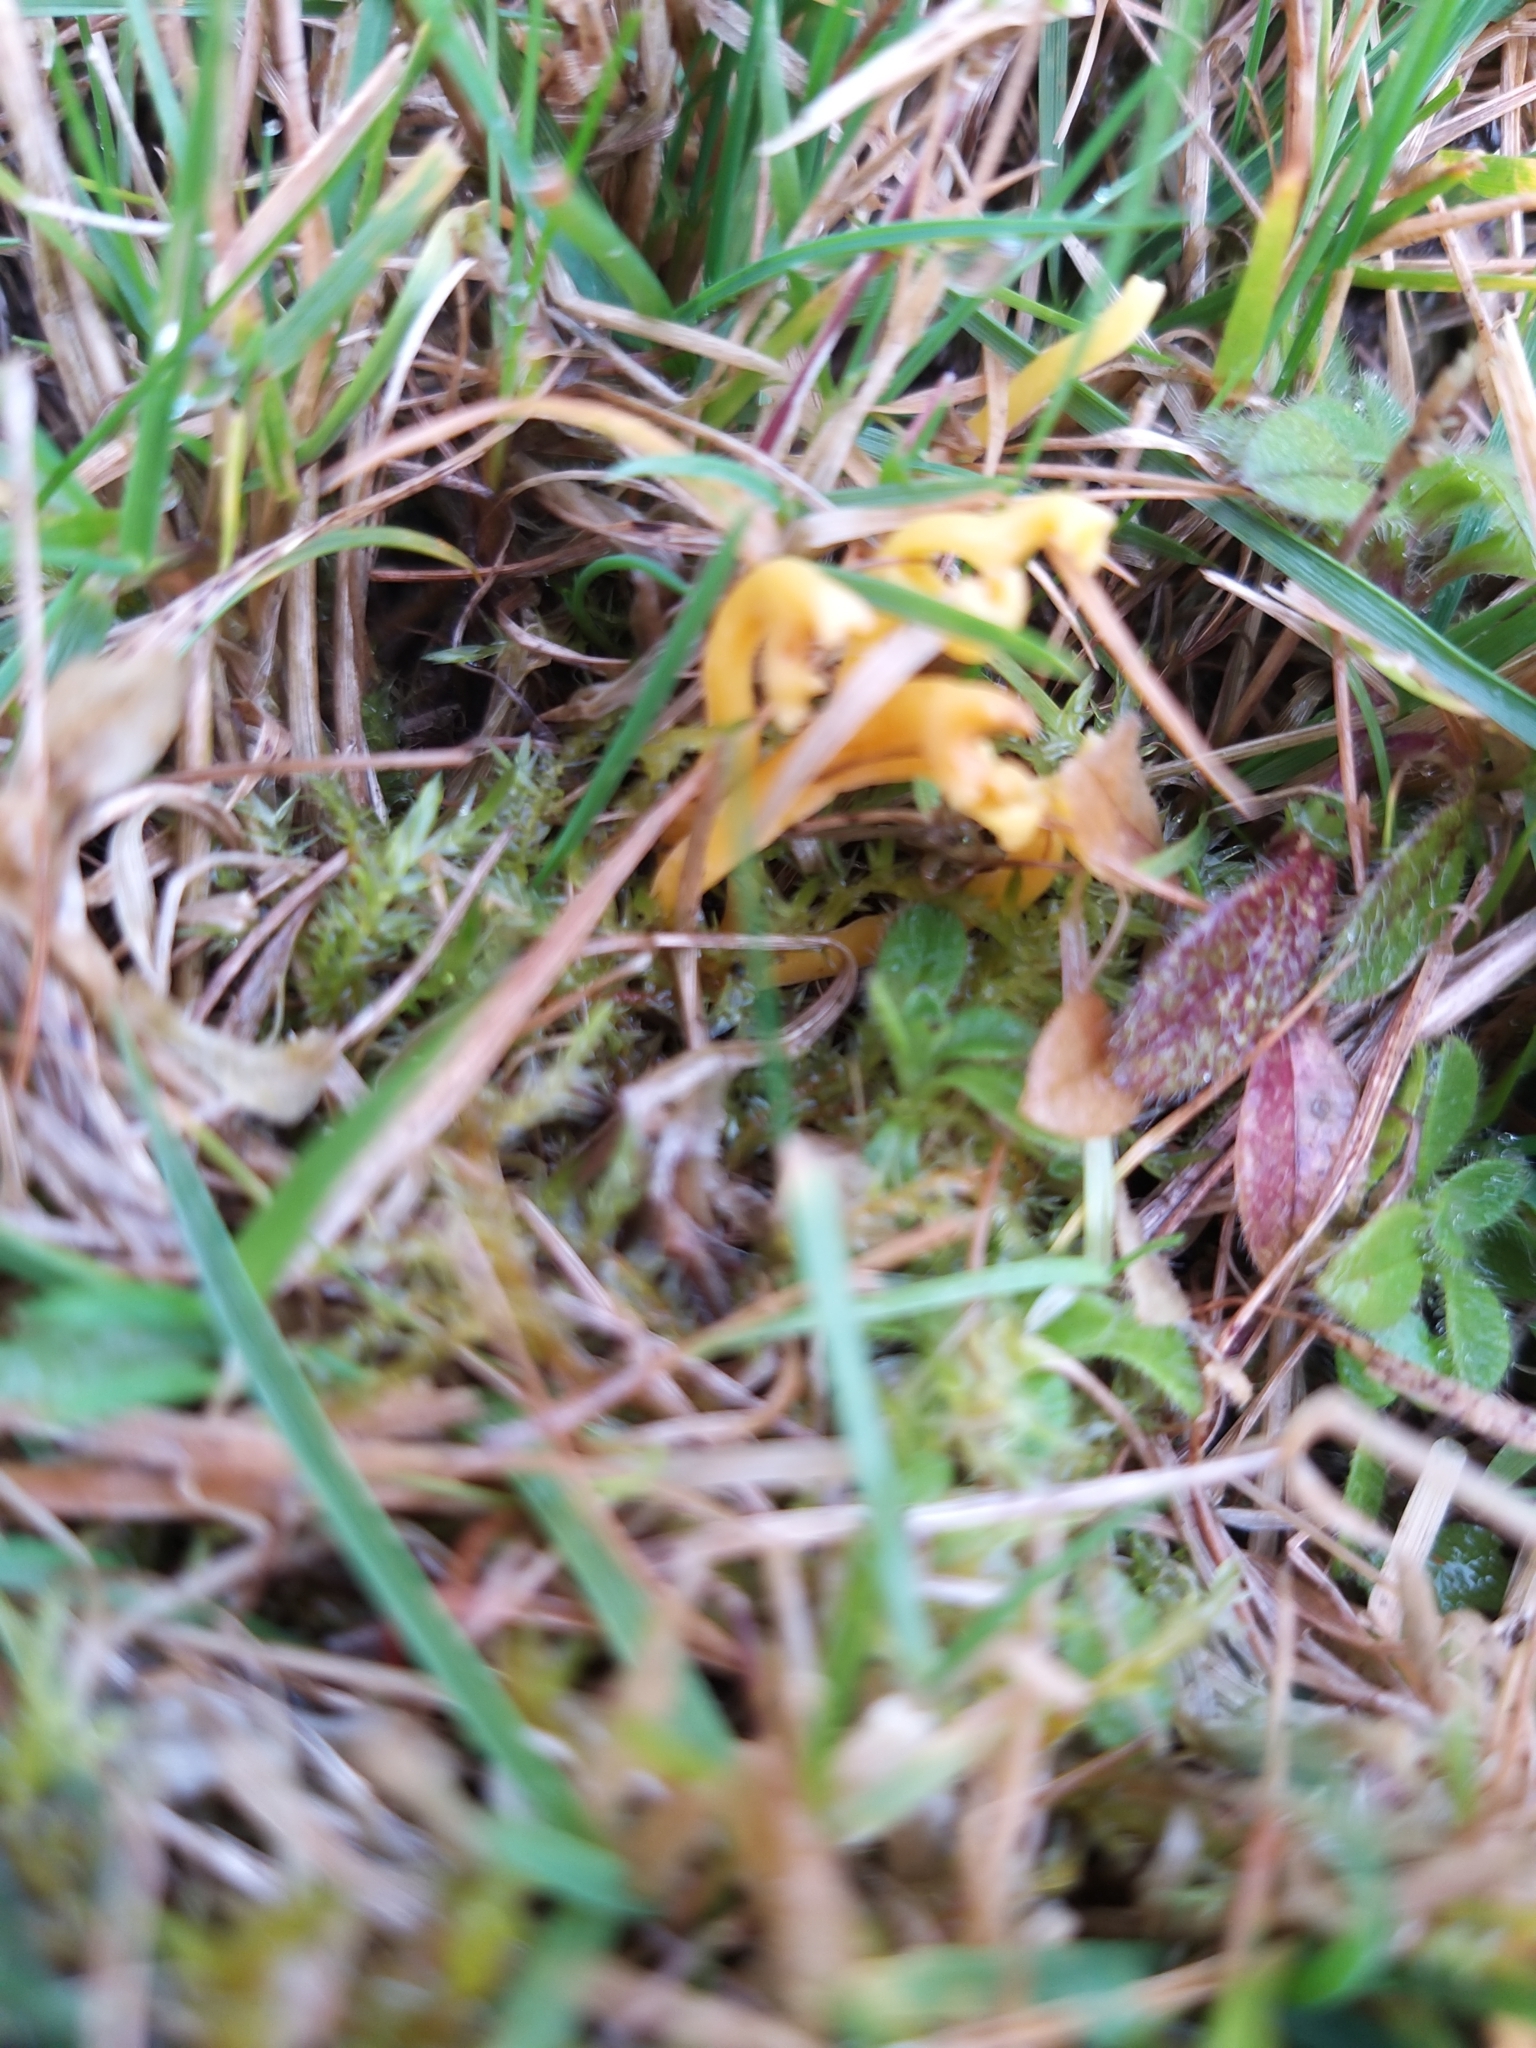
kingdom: Fungi
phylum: Basidiomycota
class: Agaricomycetes
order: Agaricales
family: Clavariaceae
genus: Clavulinopsis
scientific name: Clavulinopsis corniculata
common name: Meadow coral
